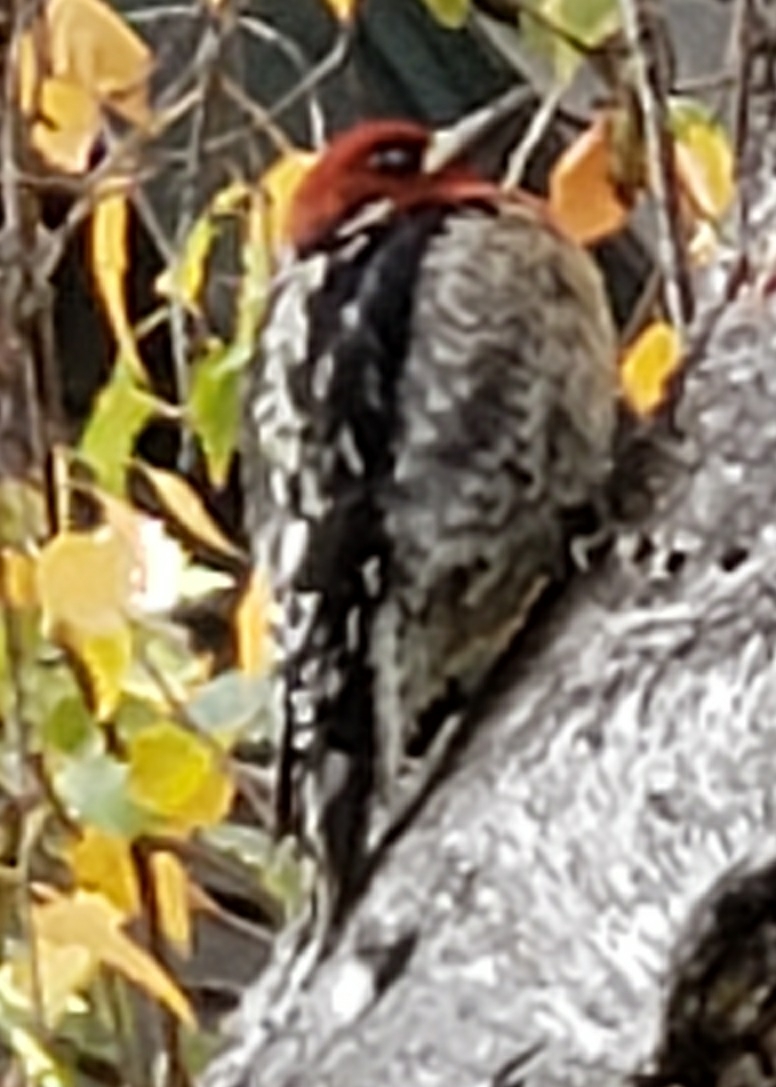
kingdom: Animalia
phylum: Chordata
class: Aves
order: Piciformes
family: Picidae
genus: Sphyrapicus
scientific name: Sphyrapicus ruber
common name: Red-breasted sapsucker
